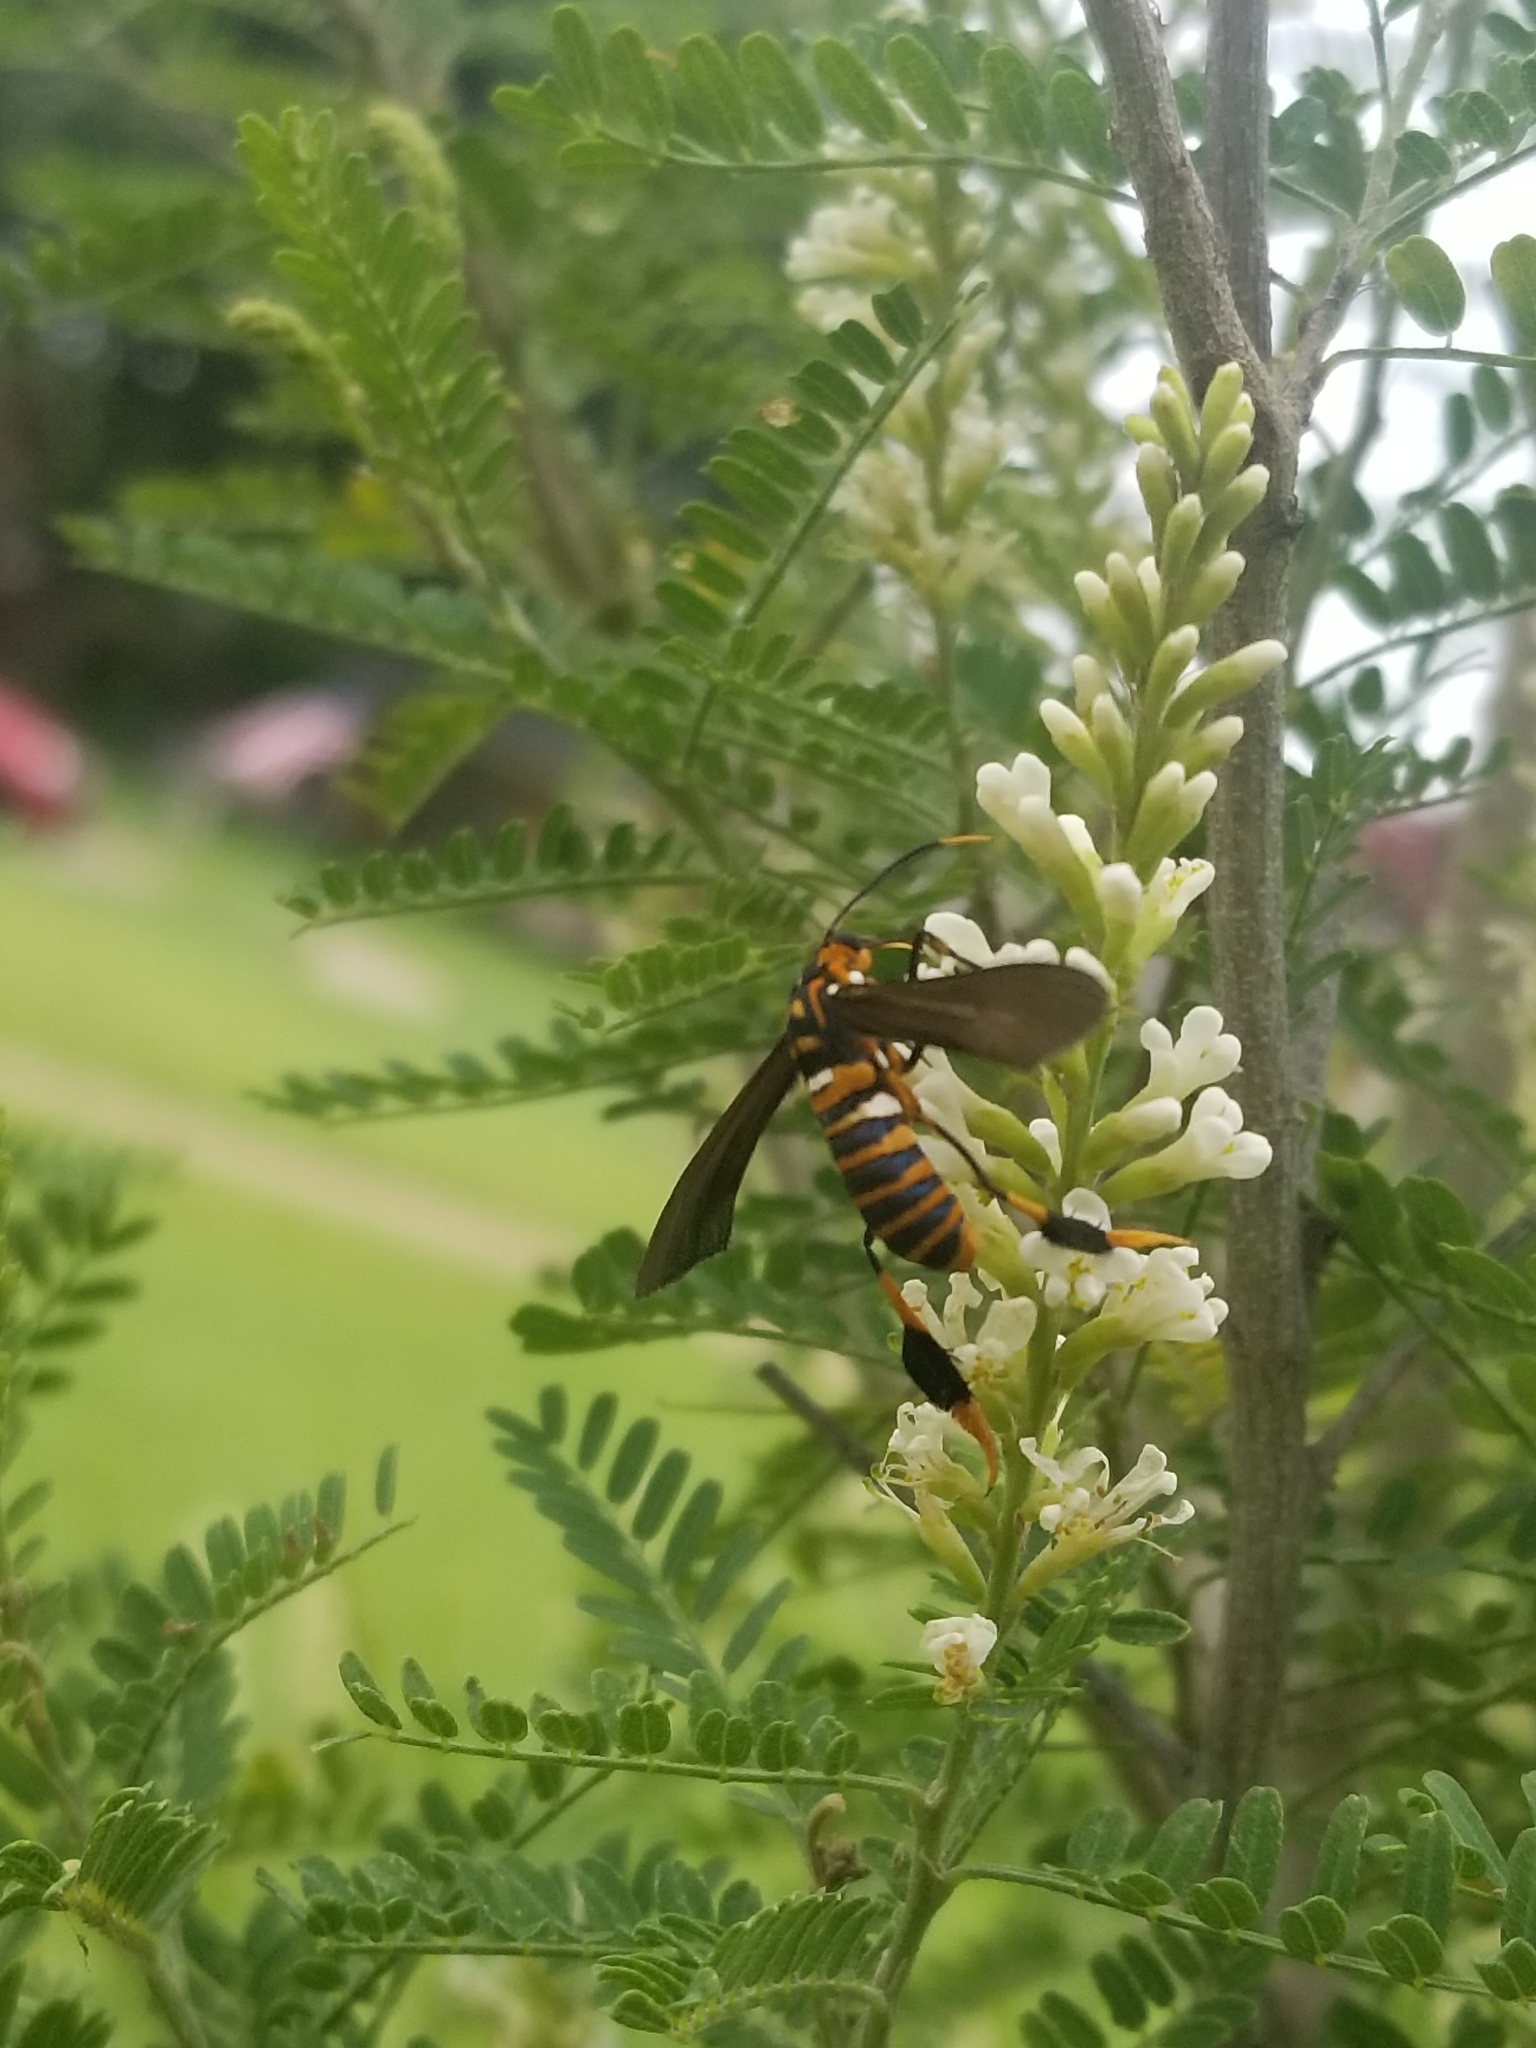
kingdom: Animalia
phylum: Arthropoda
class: Insecta
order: Lepidoptera
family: Erebidae
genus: Horama
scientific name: Horama panthalon
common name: Texas wasp moth
